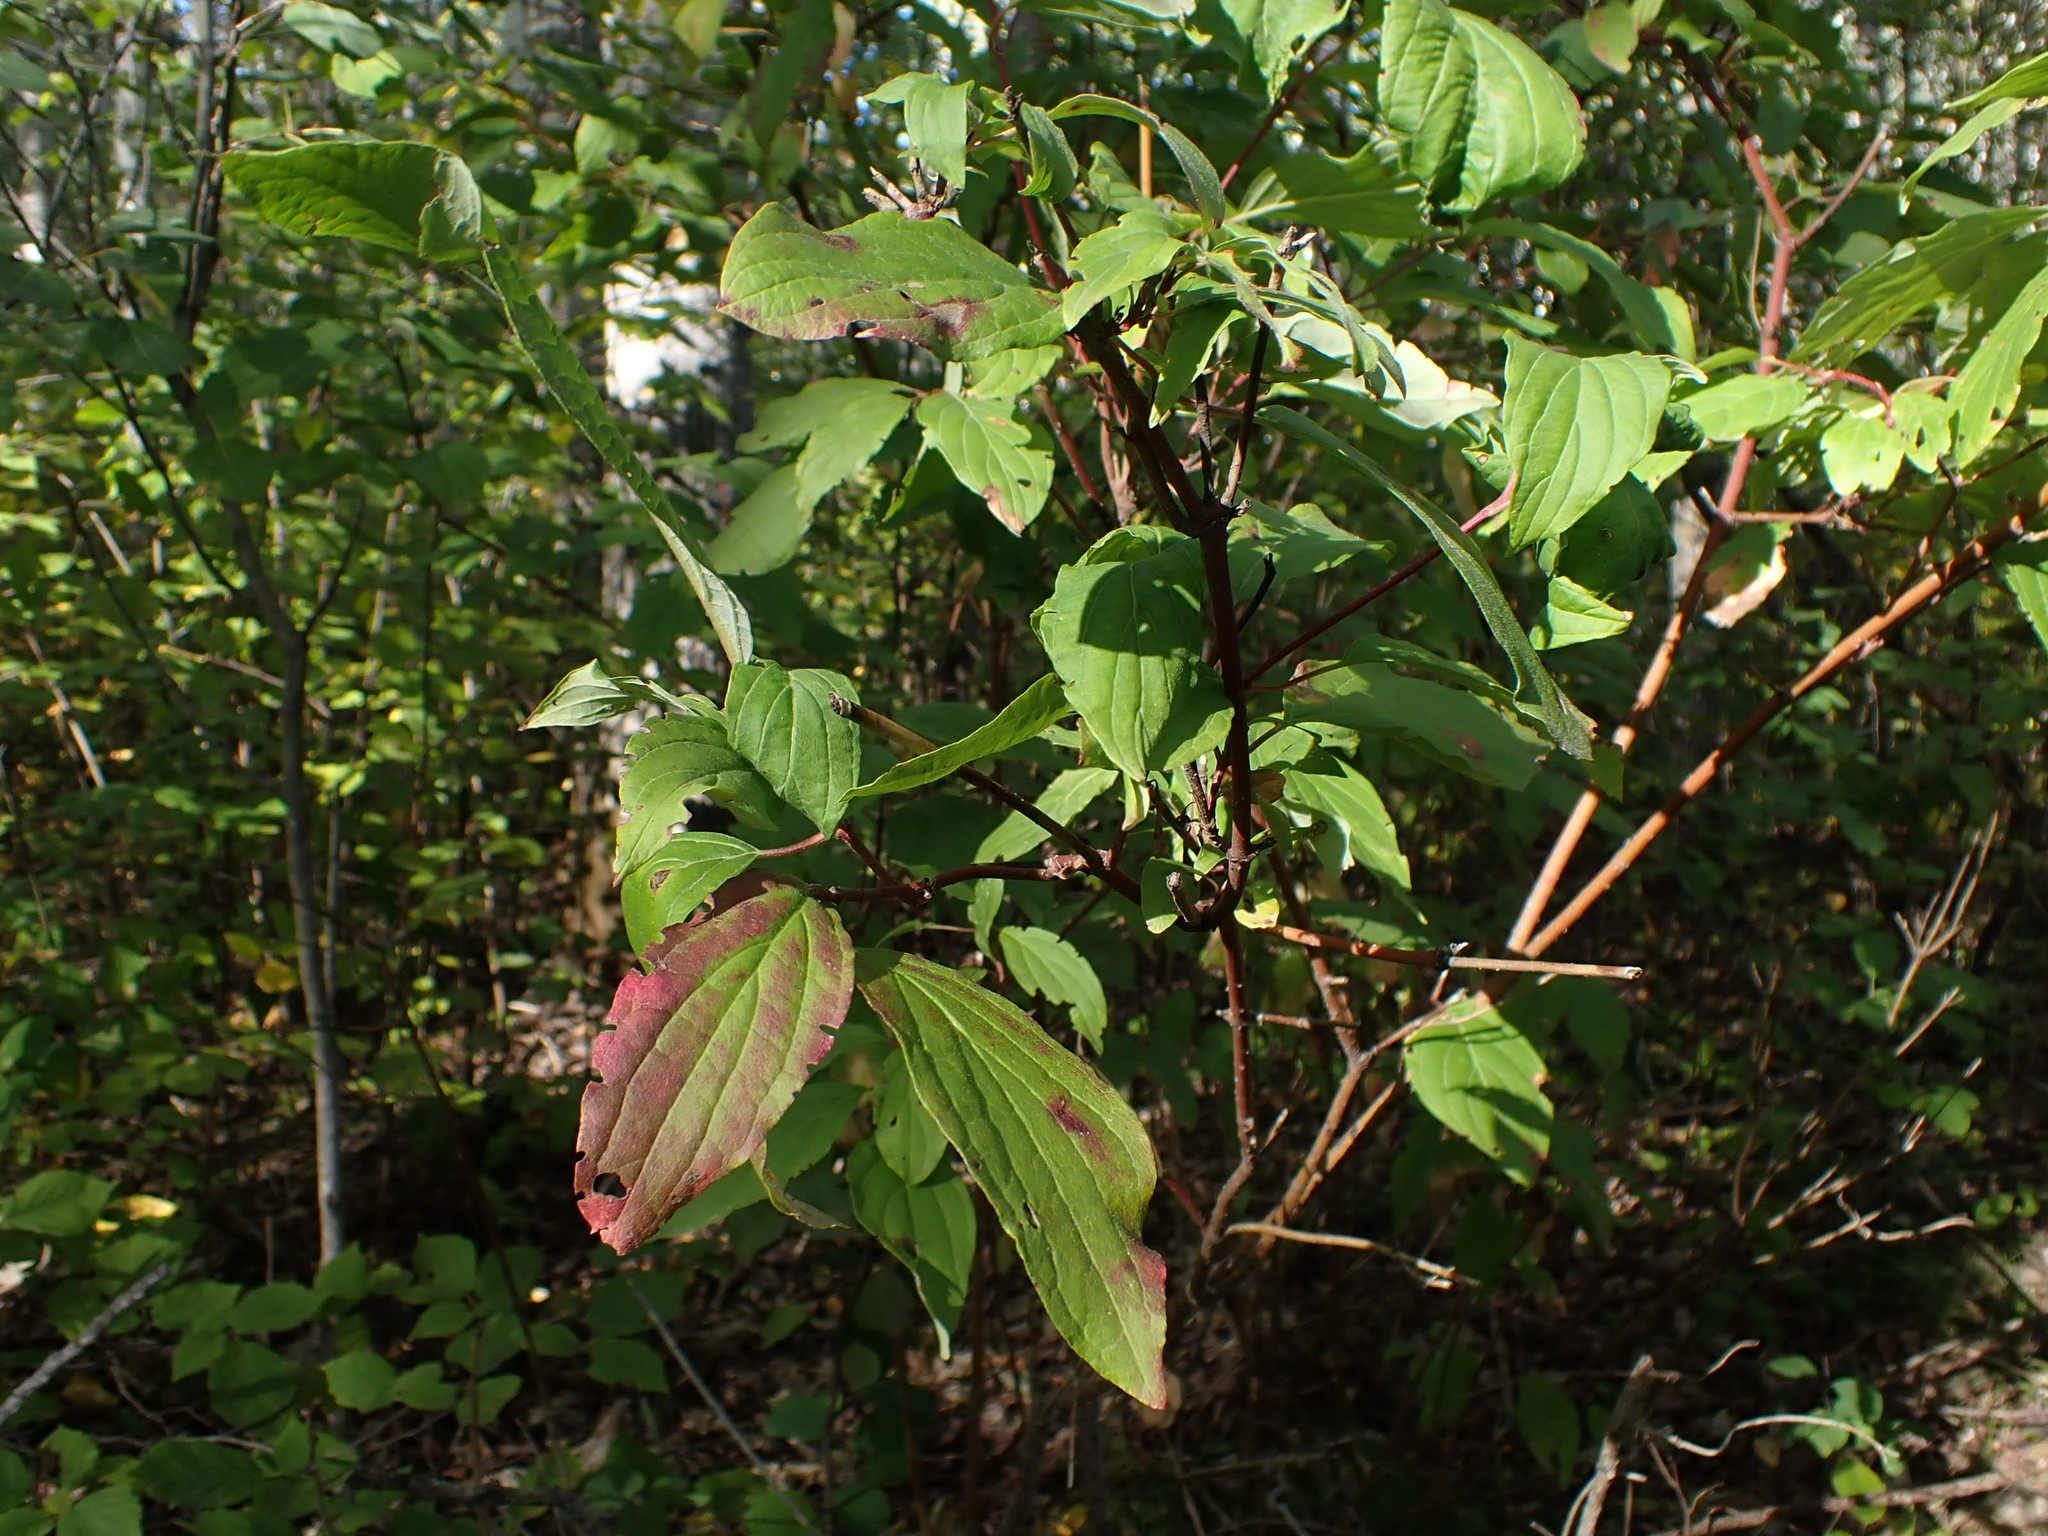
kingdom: Plantae
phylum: Tracheophyta
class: Magnoliopsida
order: Cornales
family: Cornaceae
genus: Cornus
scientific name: Cornus sericea
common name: Red-osier dogwood
